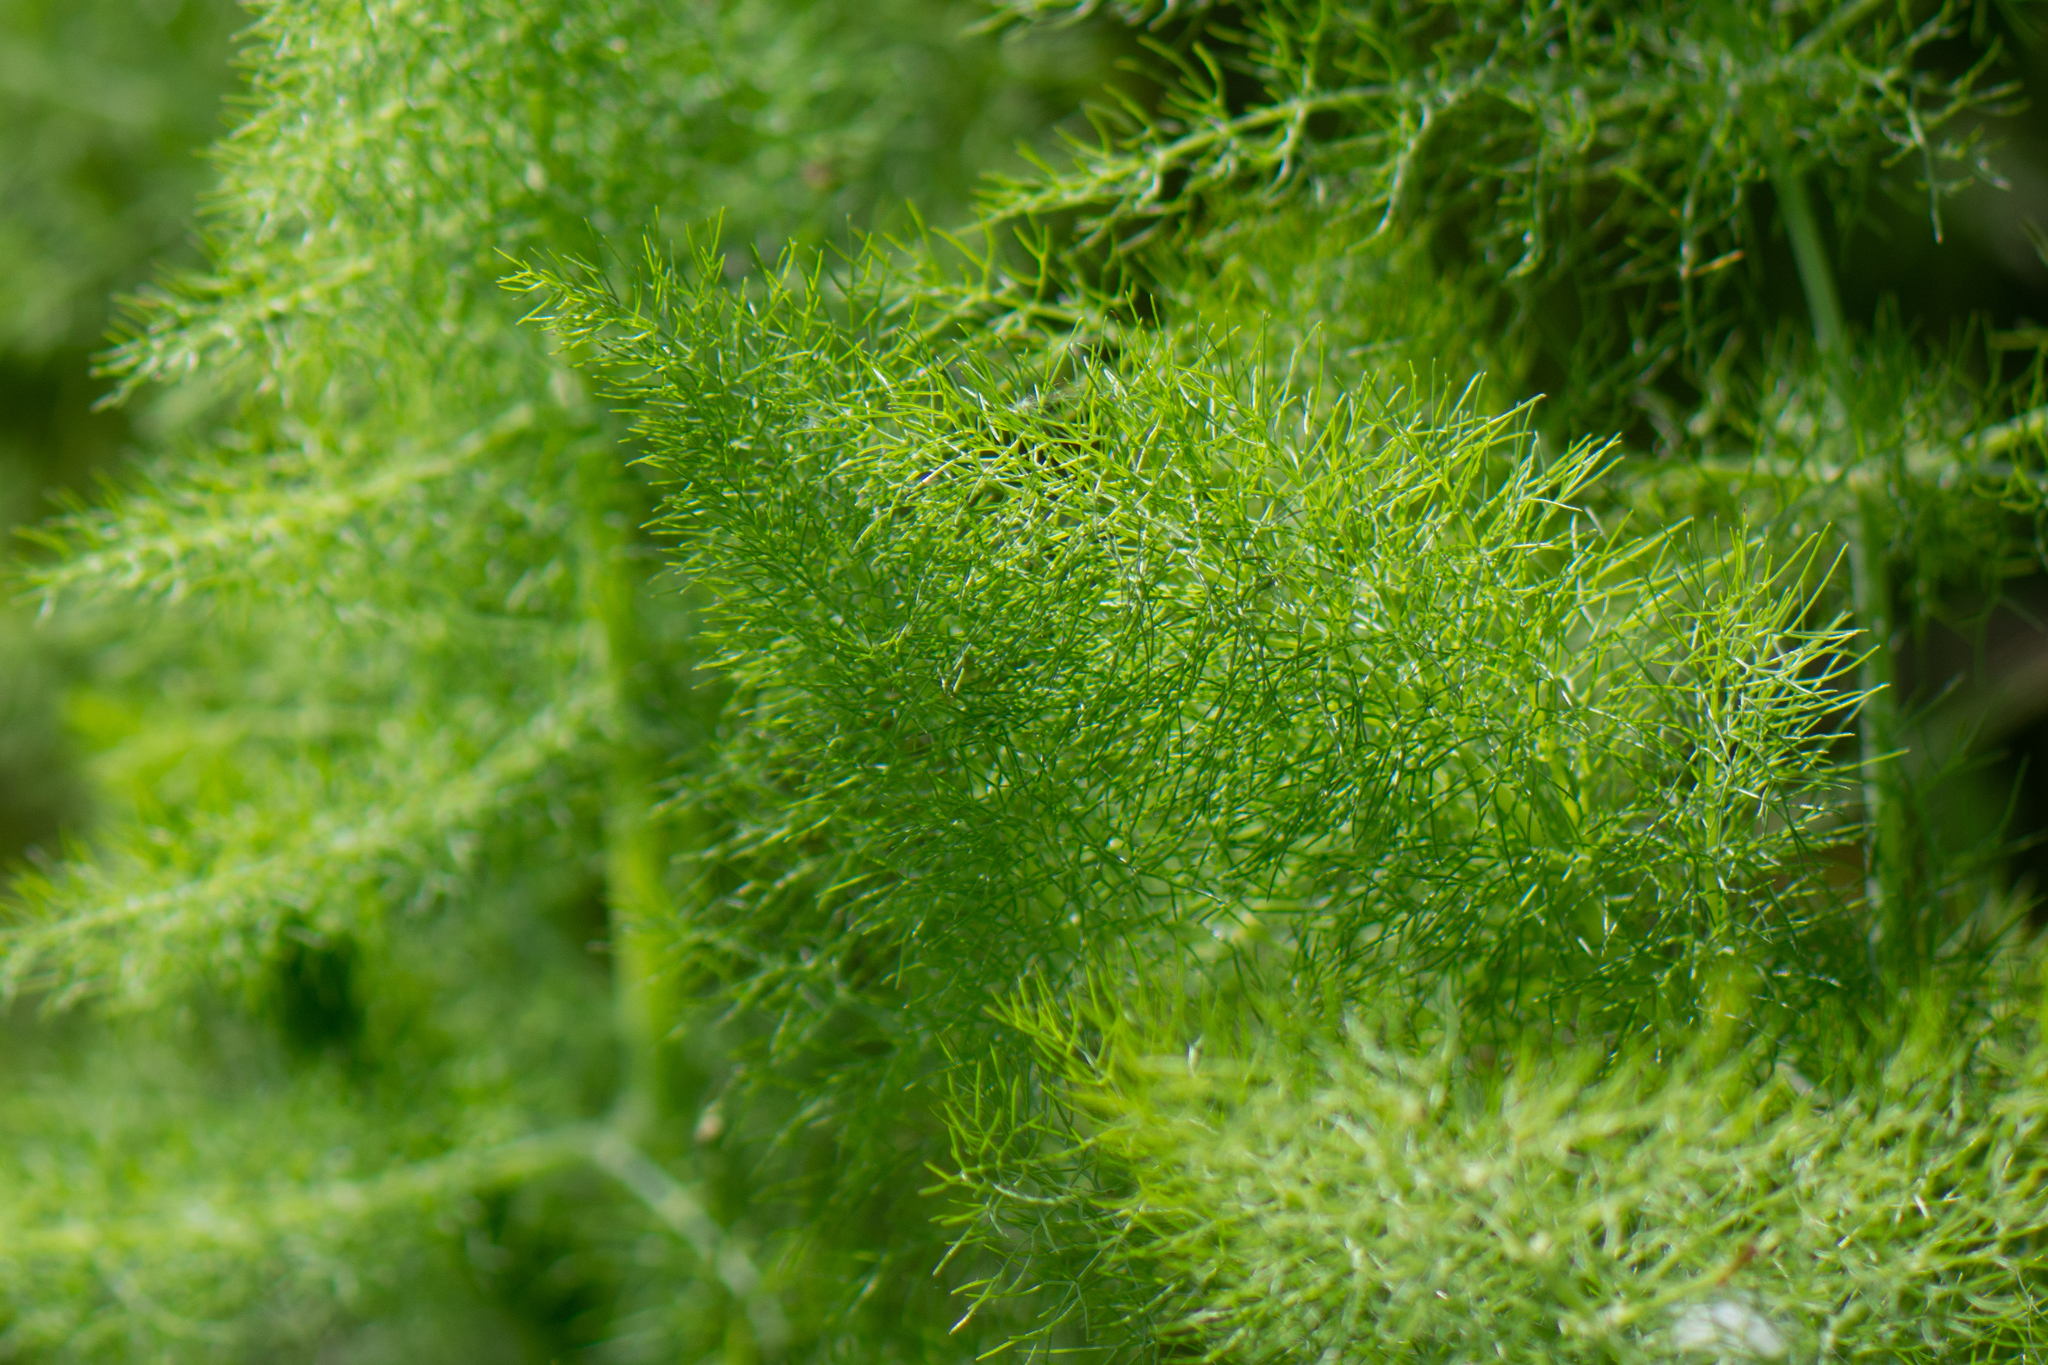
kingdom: Plantae
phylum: Tracheophyta
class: Magnoliopsida
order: Apiales
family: Apiaceae
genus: Foeniculum
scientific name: Foeniculum vulgare
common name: Fennel
